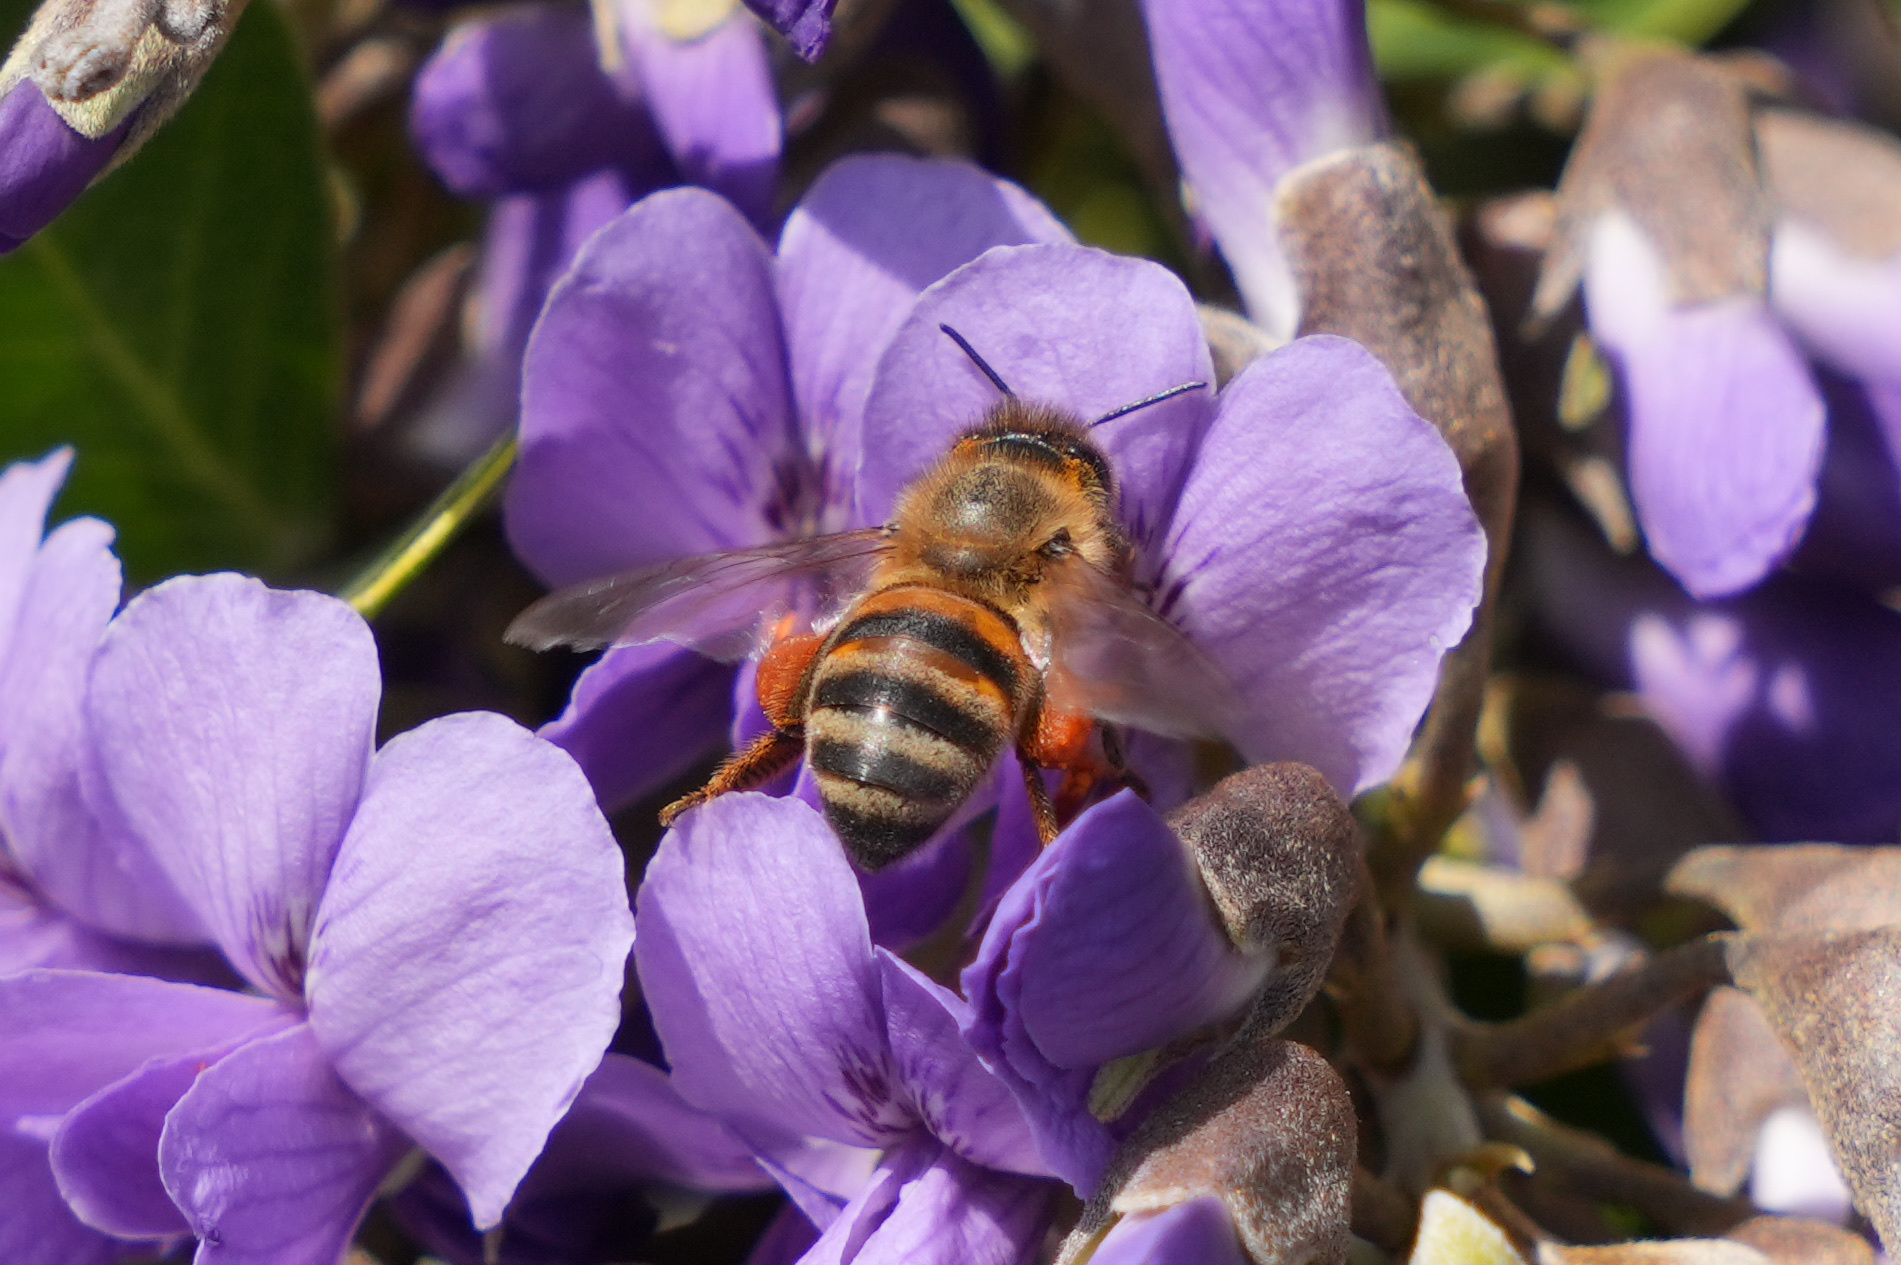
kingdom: Animalia
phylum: Arthropoda
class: Insecta
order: Hymenoptera
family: Apidae
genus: Apis
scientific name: Apis mellifera
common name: Honey bee
